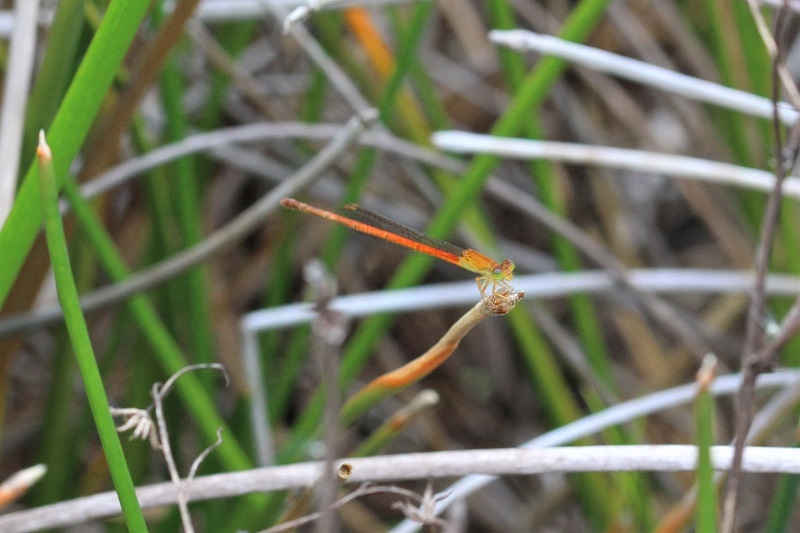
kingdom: Animalia
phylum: Arthropoda
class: Insecta
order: Odonata
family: Coenagrionidae
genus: Ceriagrion
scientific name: Ceriagrion glabrum
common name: Common pond damsel
